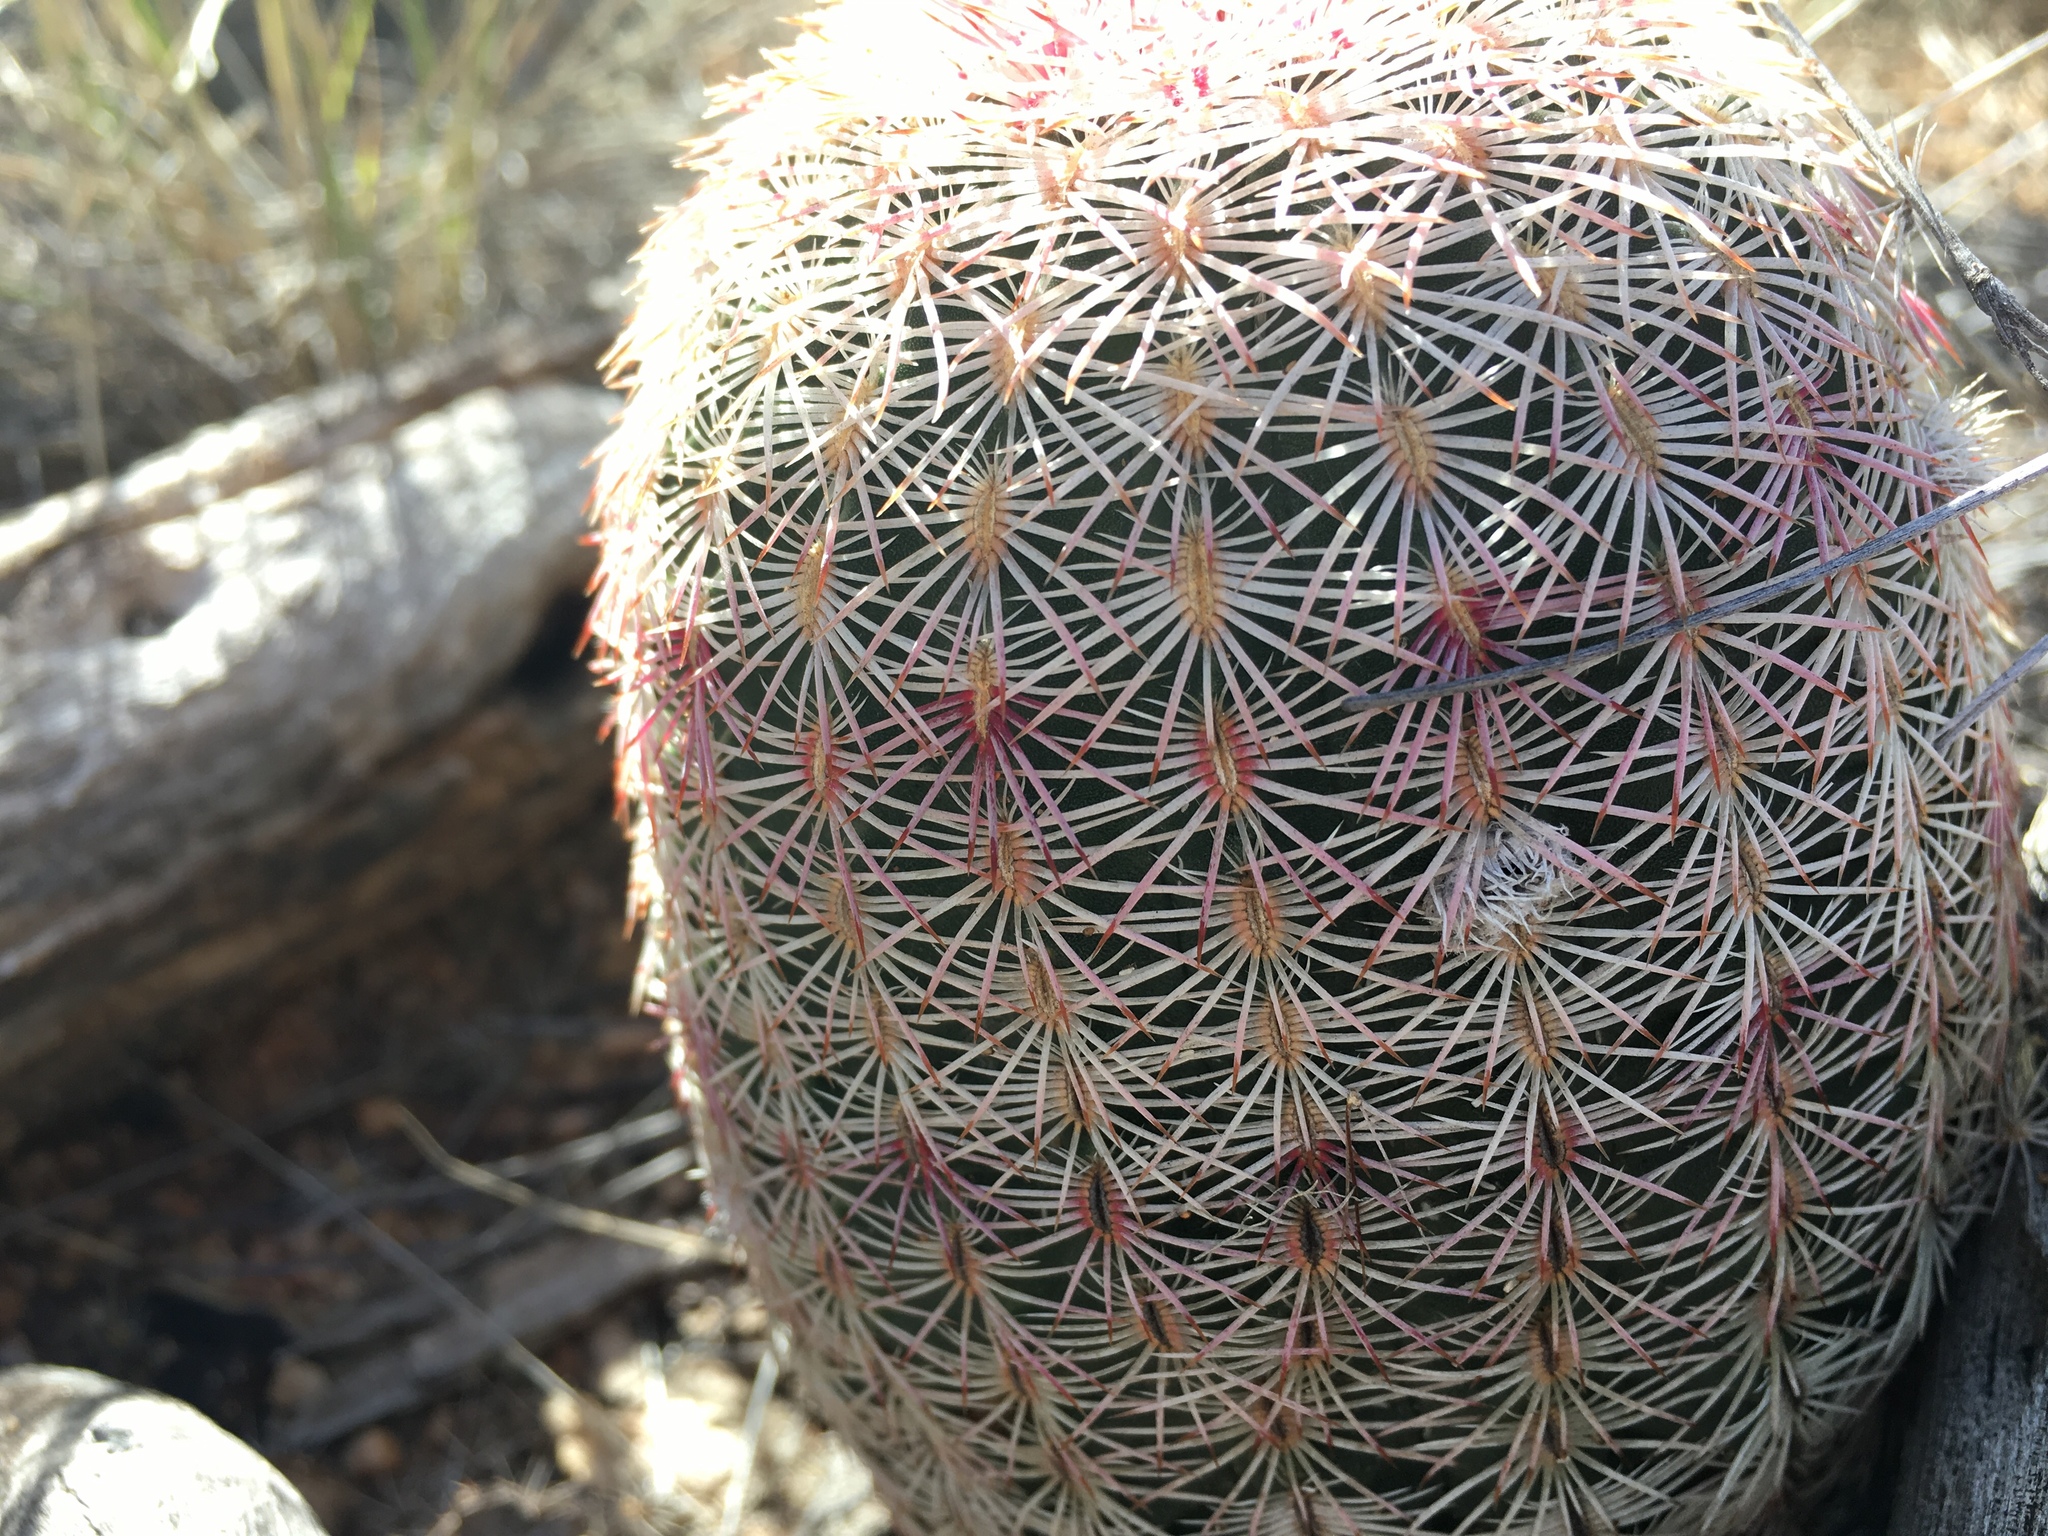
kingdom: Plantae
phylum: Tracheophyta
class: Magnoliopsida
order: Caryophyllales
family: Cactaceae
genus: Echinocereus
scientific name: Echinocereus rigidissimus
